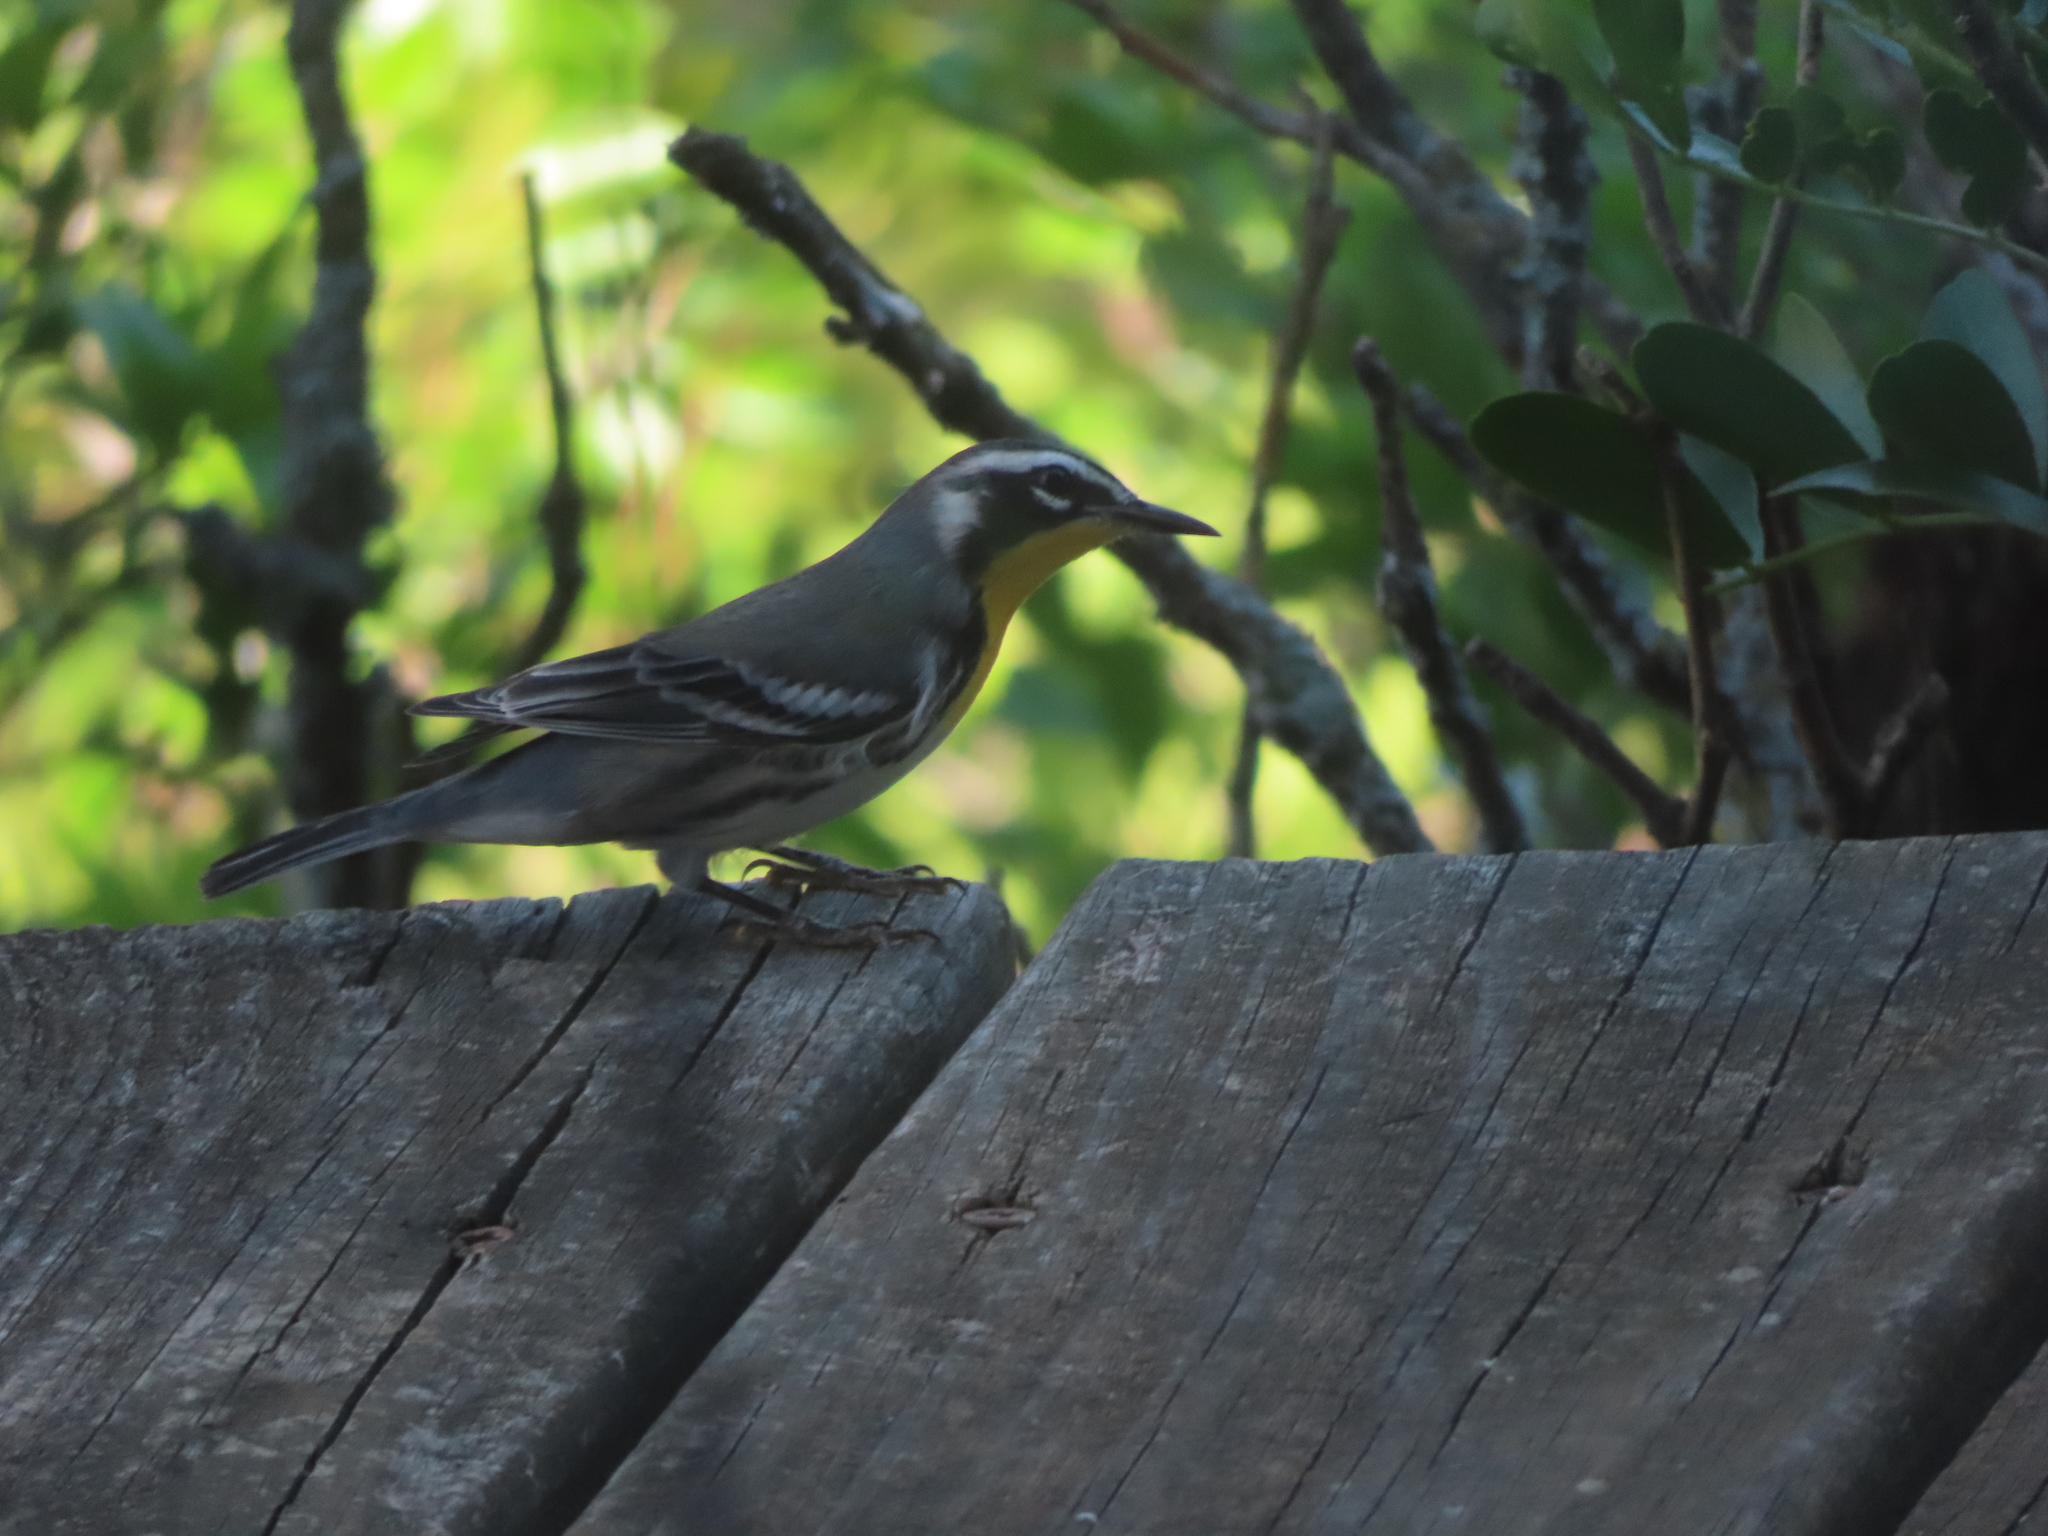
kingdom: Animalia
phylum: Chordata
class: Aves
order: Passeriformes
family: Parulidae
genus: Setophaga
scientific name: Setophaga dominica
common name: Yellow-throated warbler
